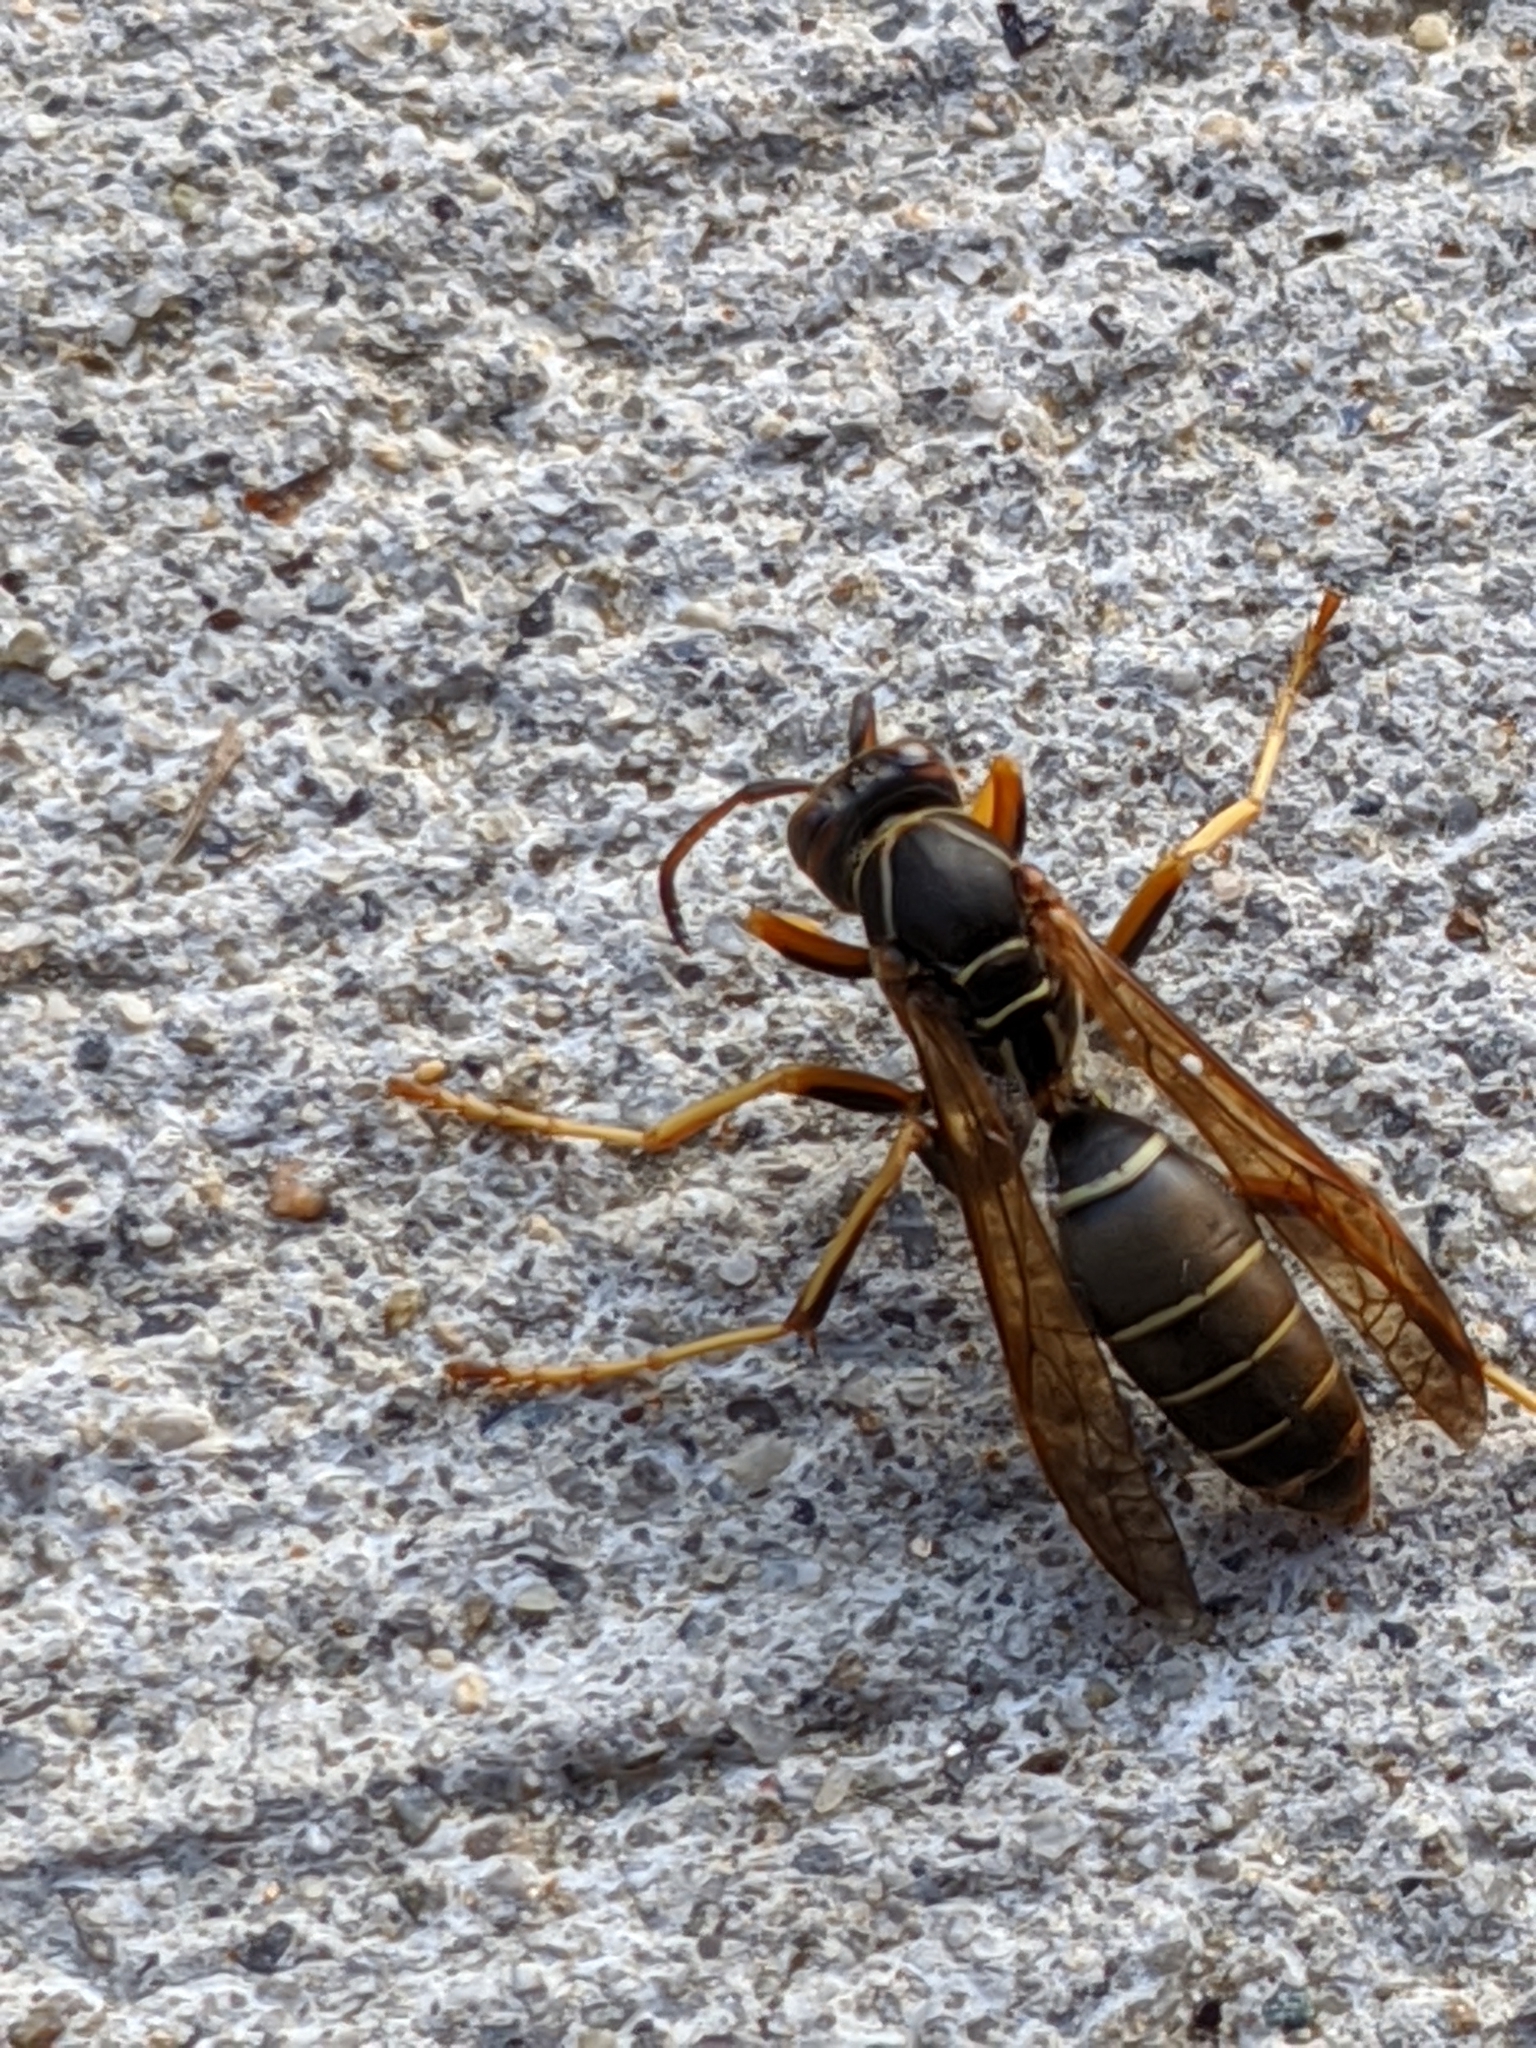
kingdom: Animalia
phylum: Arthropoda
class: Insecta
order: Hymenoptera
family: Eumenidae
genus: Polistes
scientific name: Polistes fuscatus
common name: Dark paper wasp
